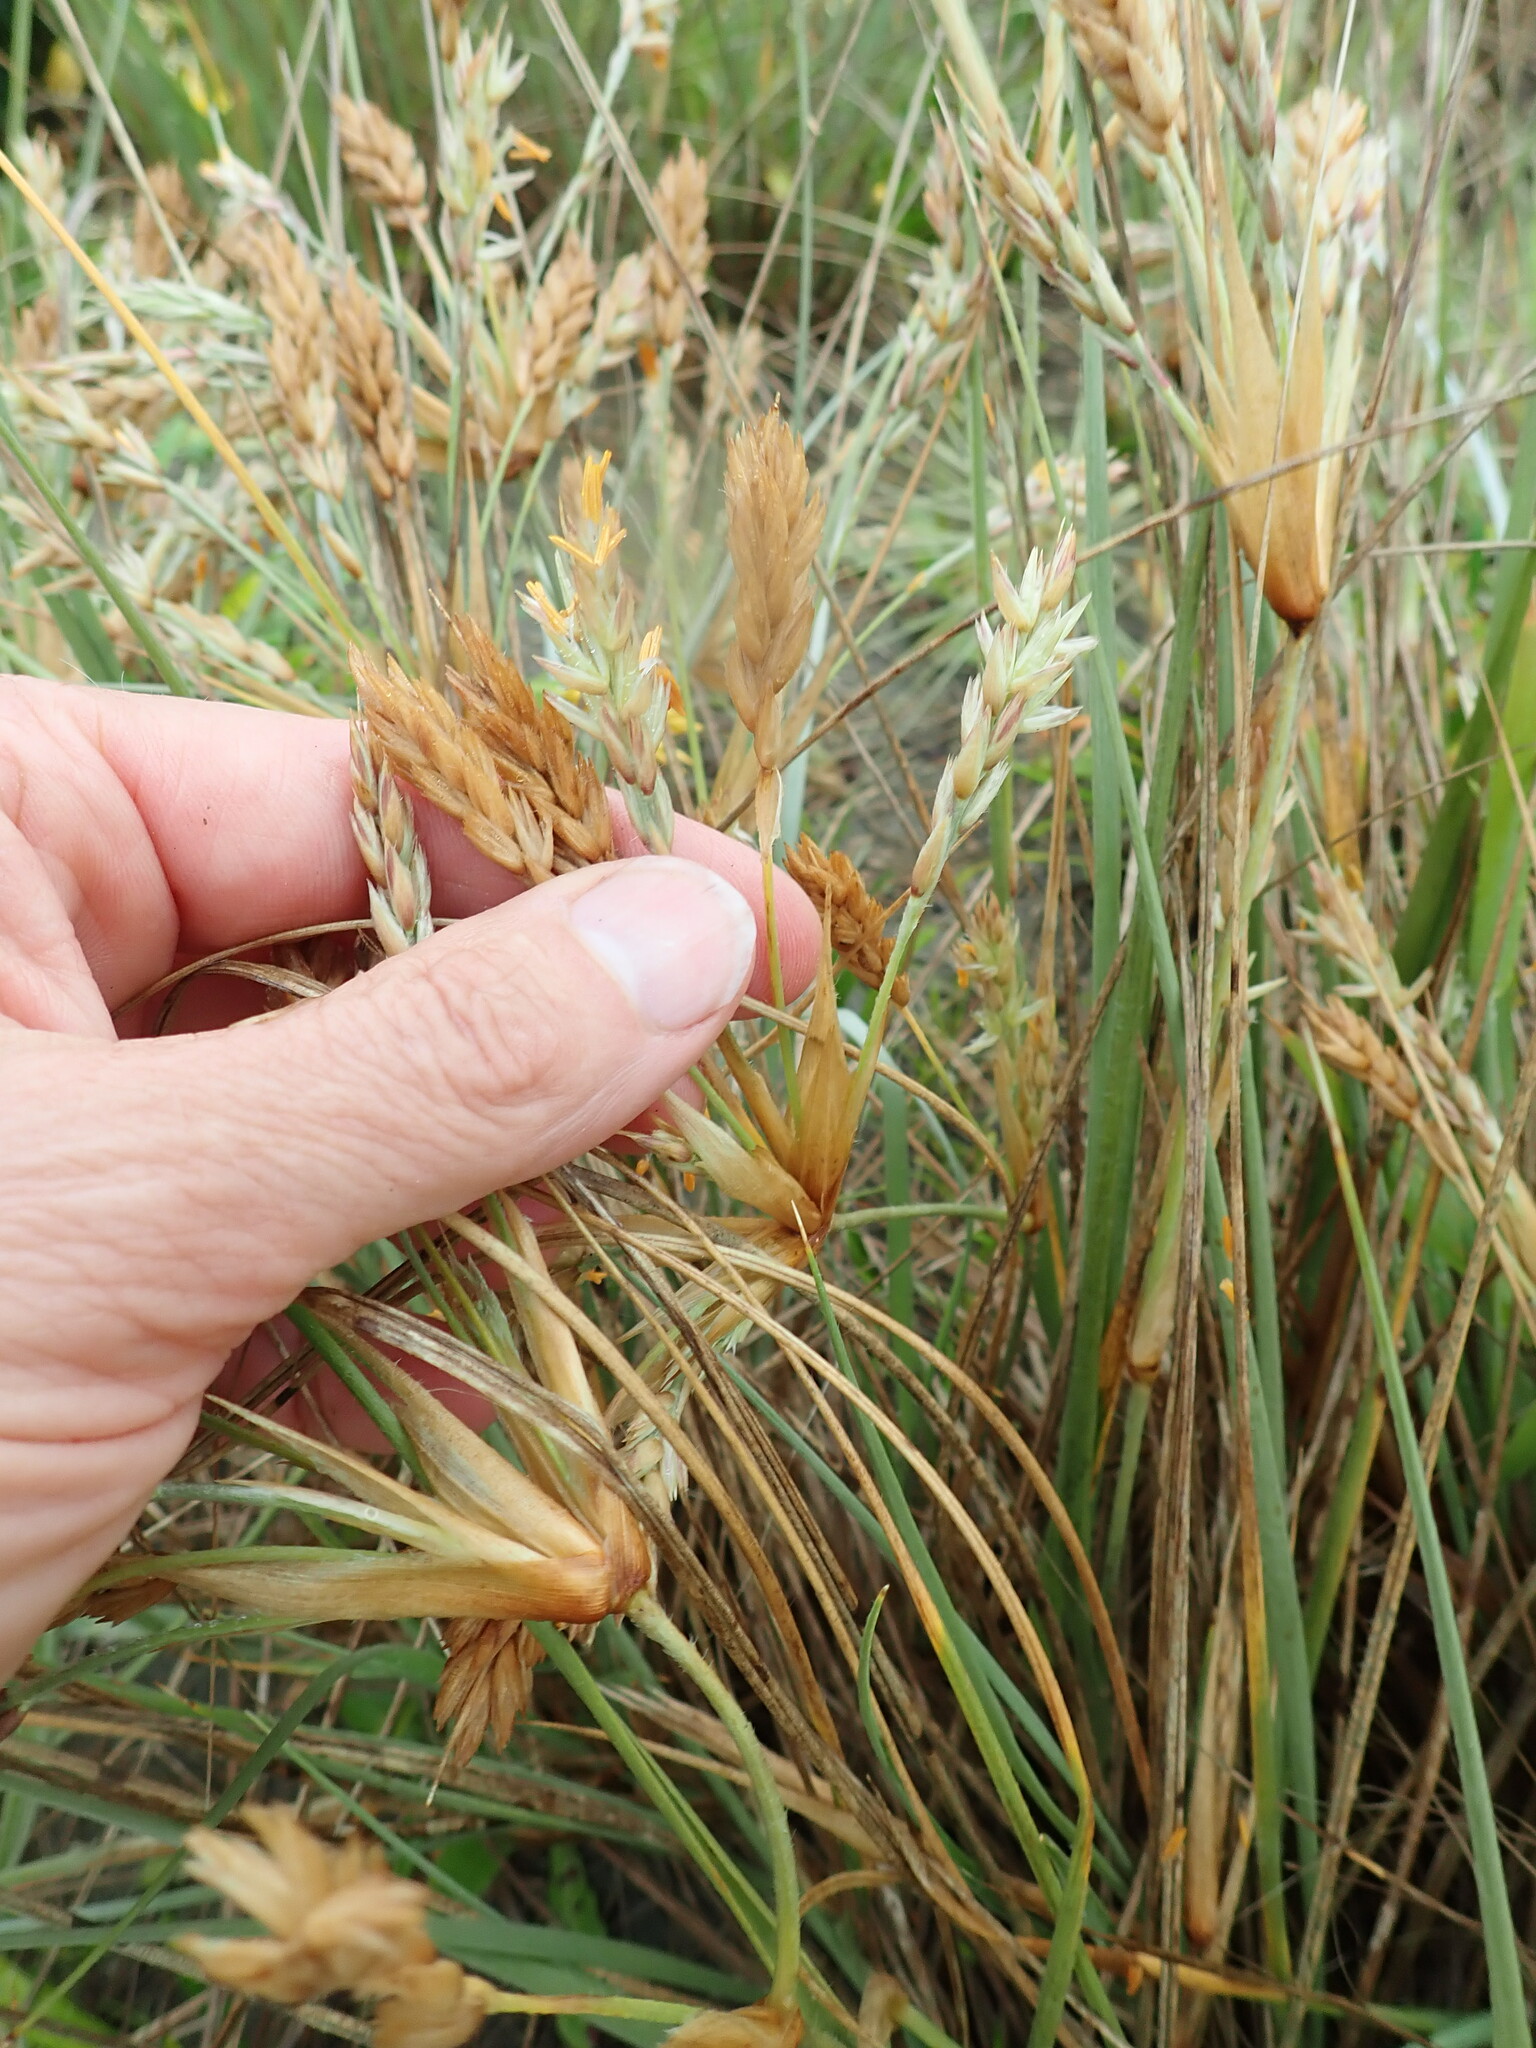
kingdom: Plantae
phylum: Tracheophyta
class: Liliopsida
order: Poales
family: Poaceae
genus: Spinifex
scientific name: Spinifex sericeus
